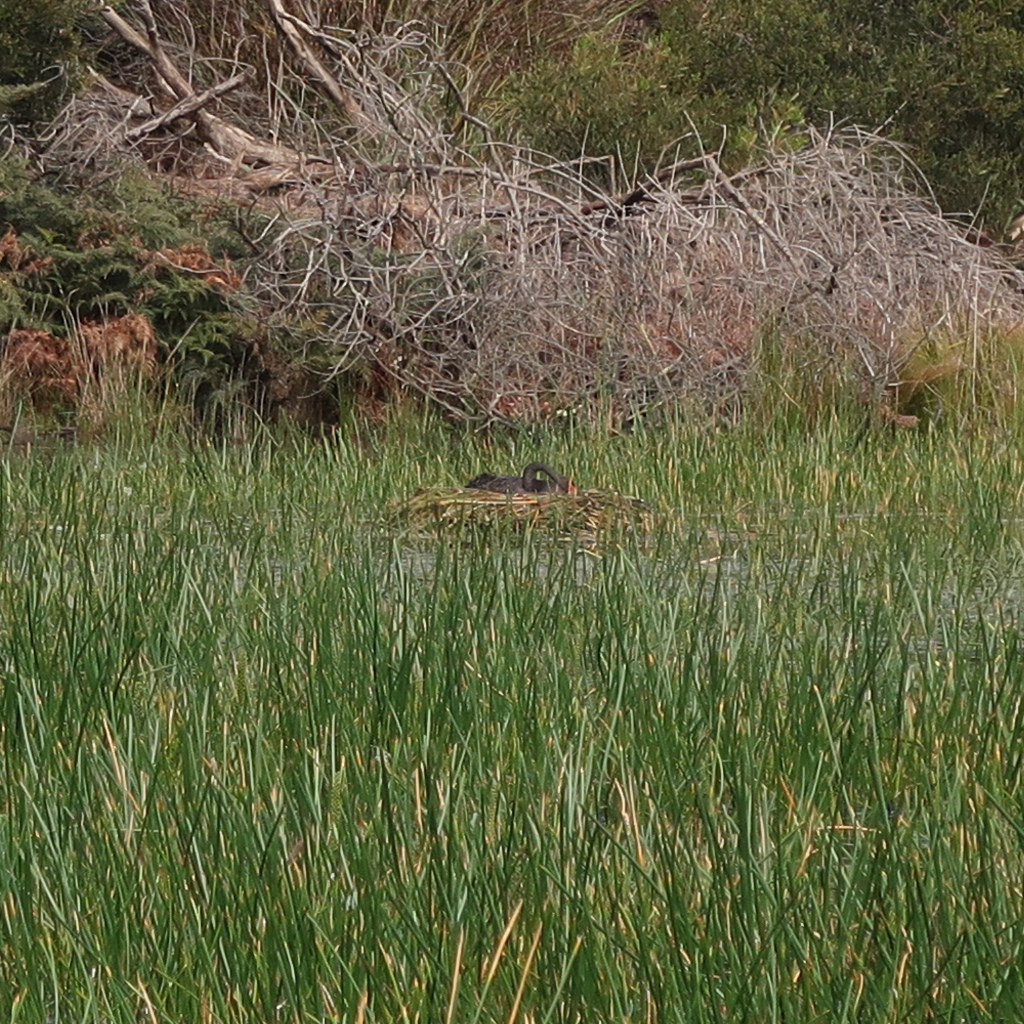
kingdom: Animalia
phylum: Chordata
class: Aves
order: Anseriformes
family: Anatidae
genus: Cygnus
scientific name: Cygnus atratus
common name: Black swan
